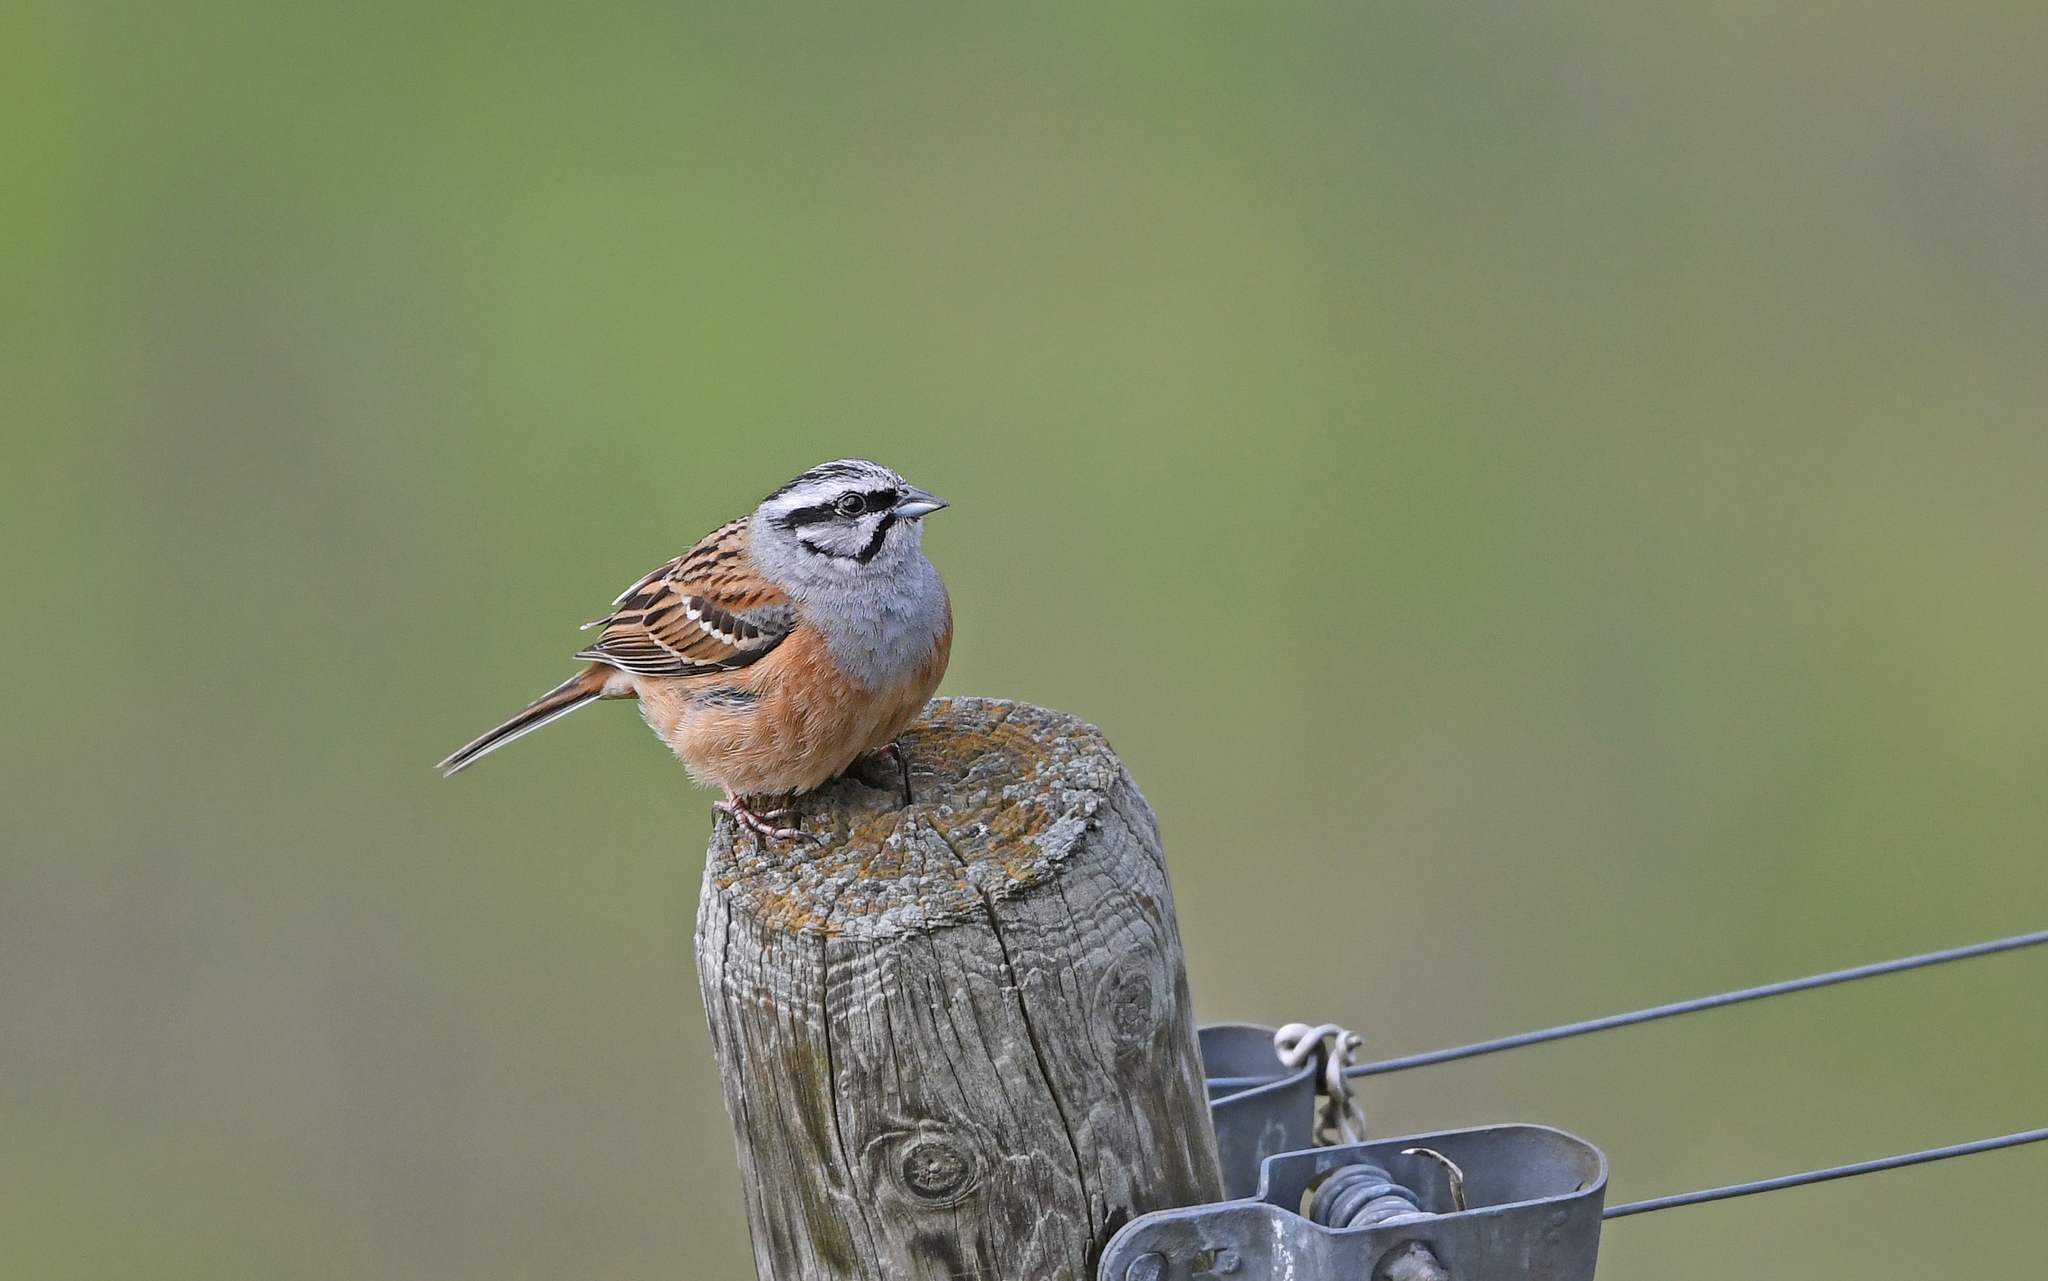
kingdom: Animalia
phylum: Chordata
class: Aves
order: Passeriformes
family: Emberizidae
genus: Emberiza
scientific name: Emberiza cia
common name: Rock bunting
